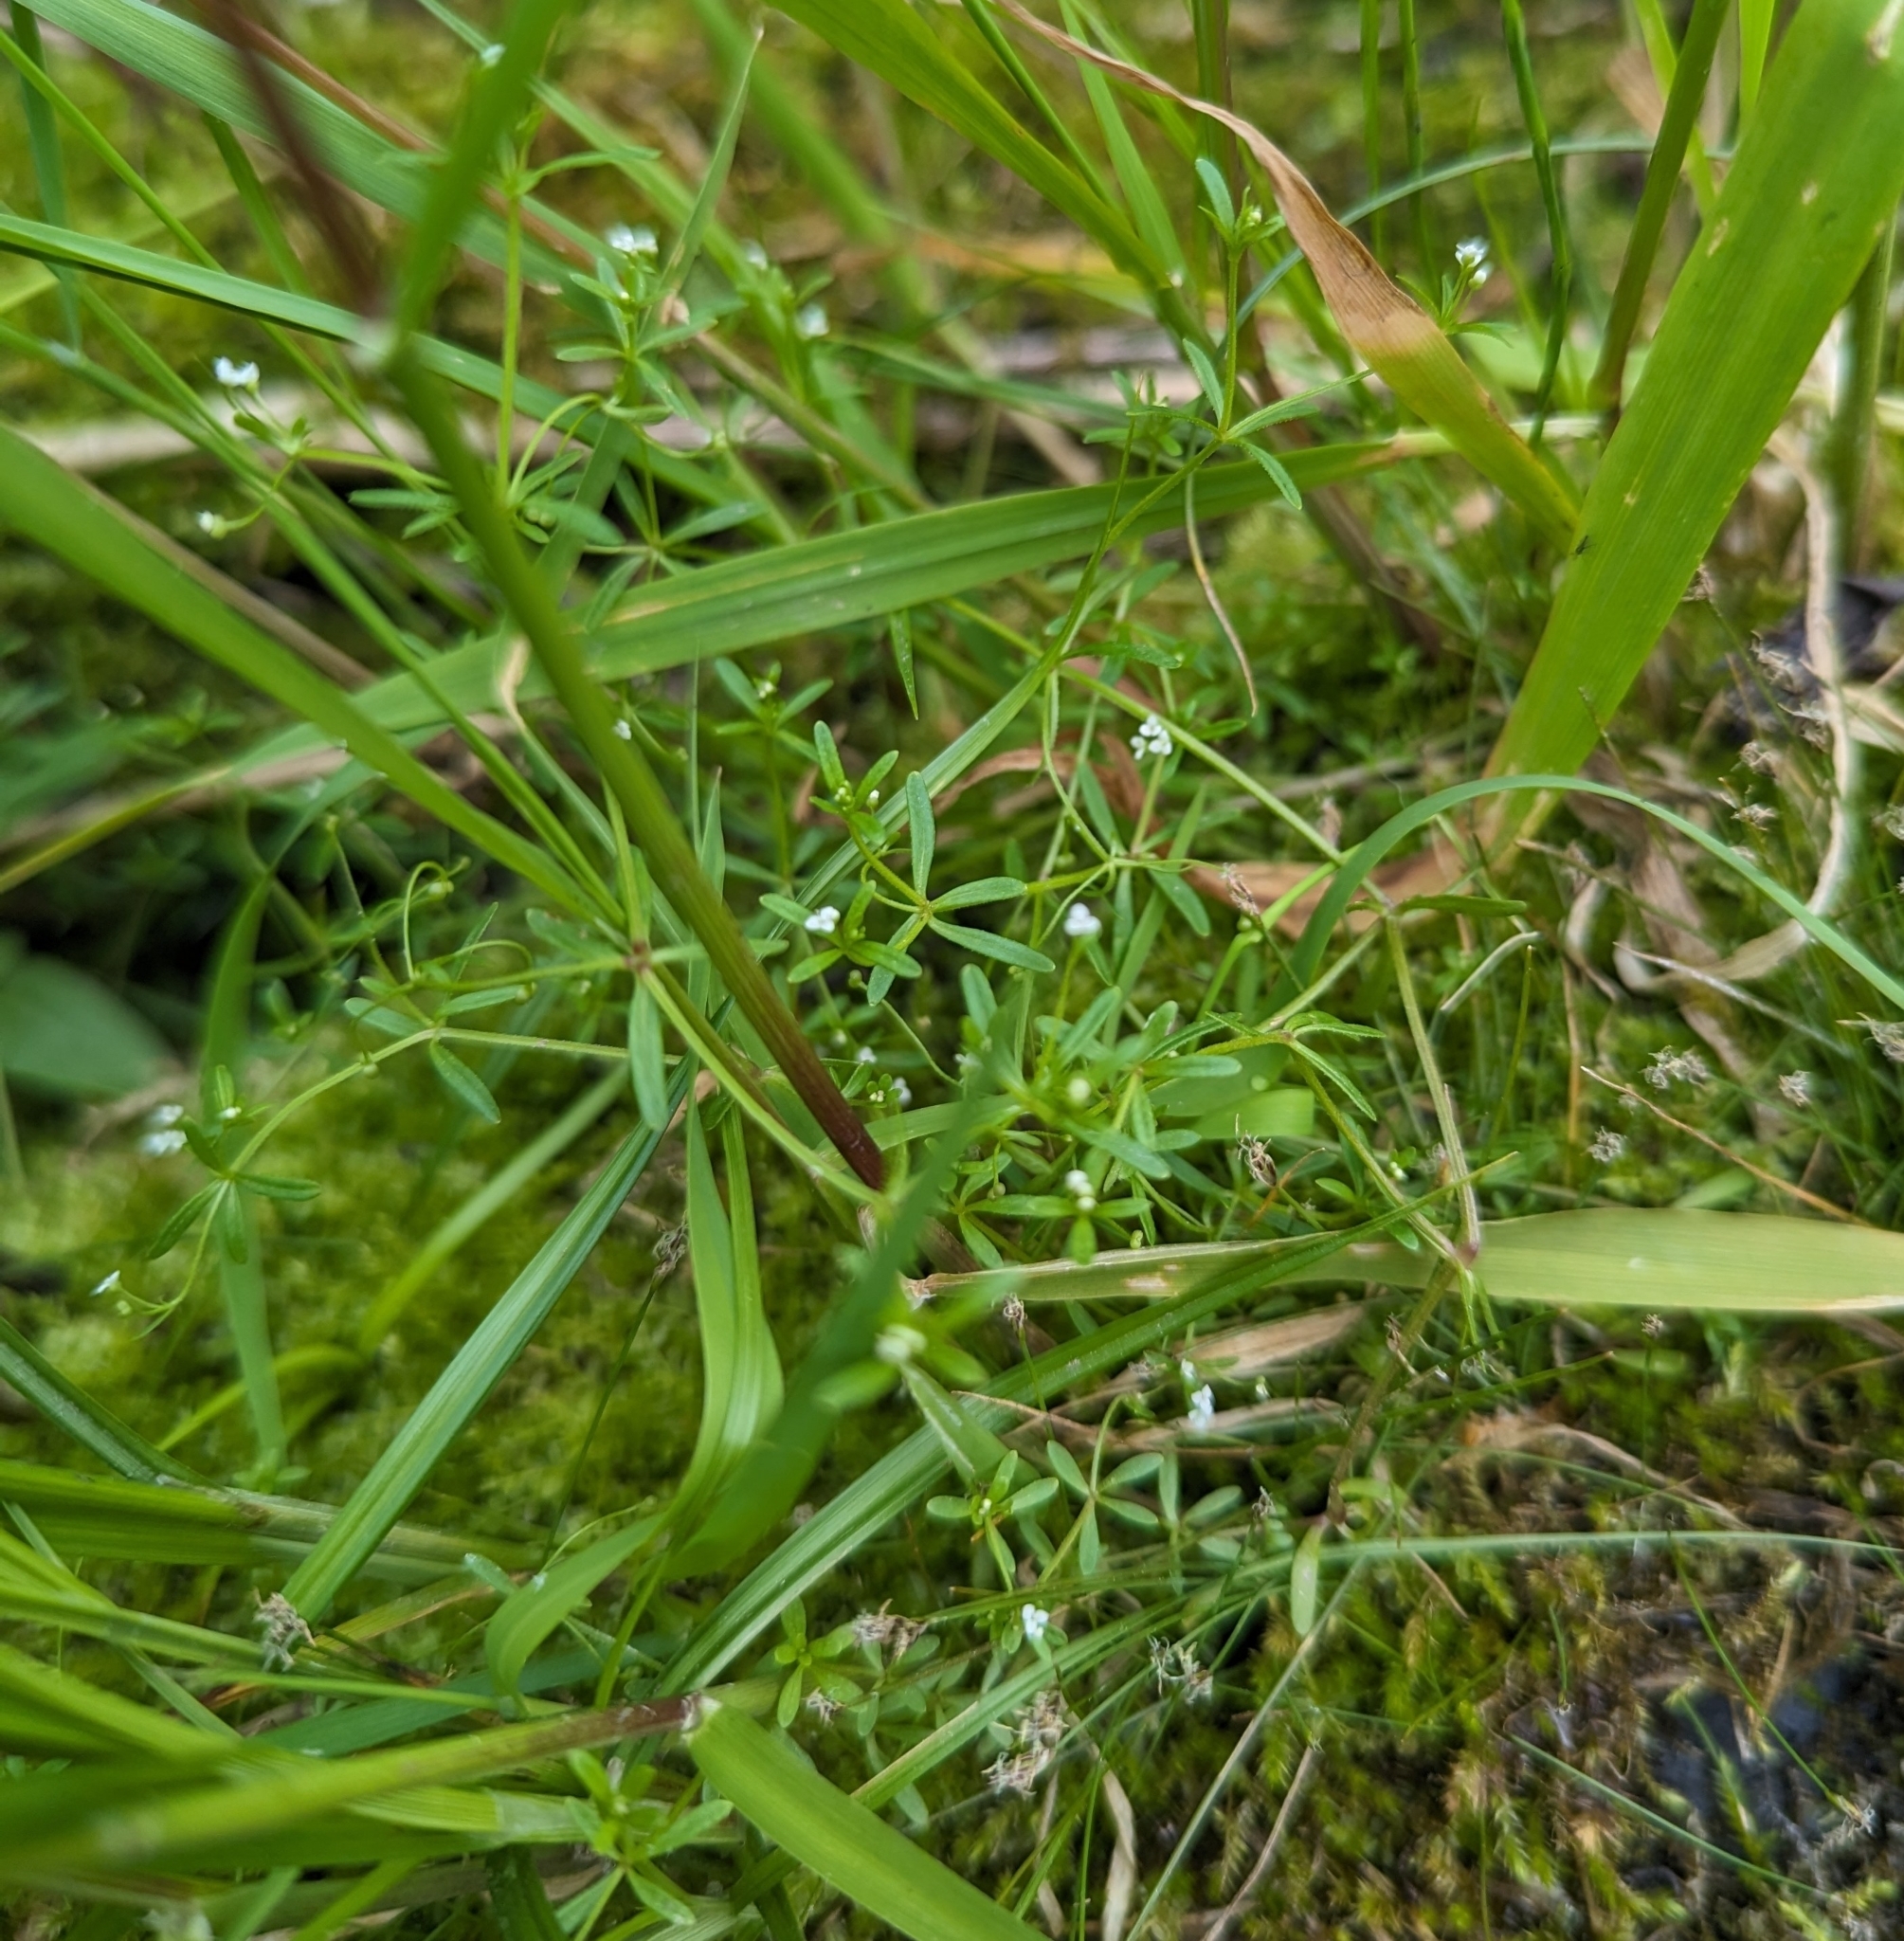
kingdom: Plantae
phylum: Tracheophyta
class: Magnoliopsida
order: Gentianales
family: Rubiaceae
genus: Galium
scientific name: Galium trifidum
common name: Small bedstraw
